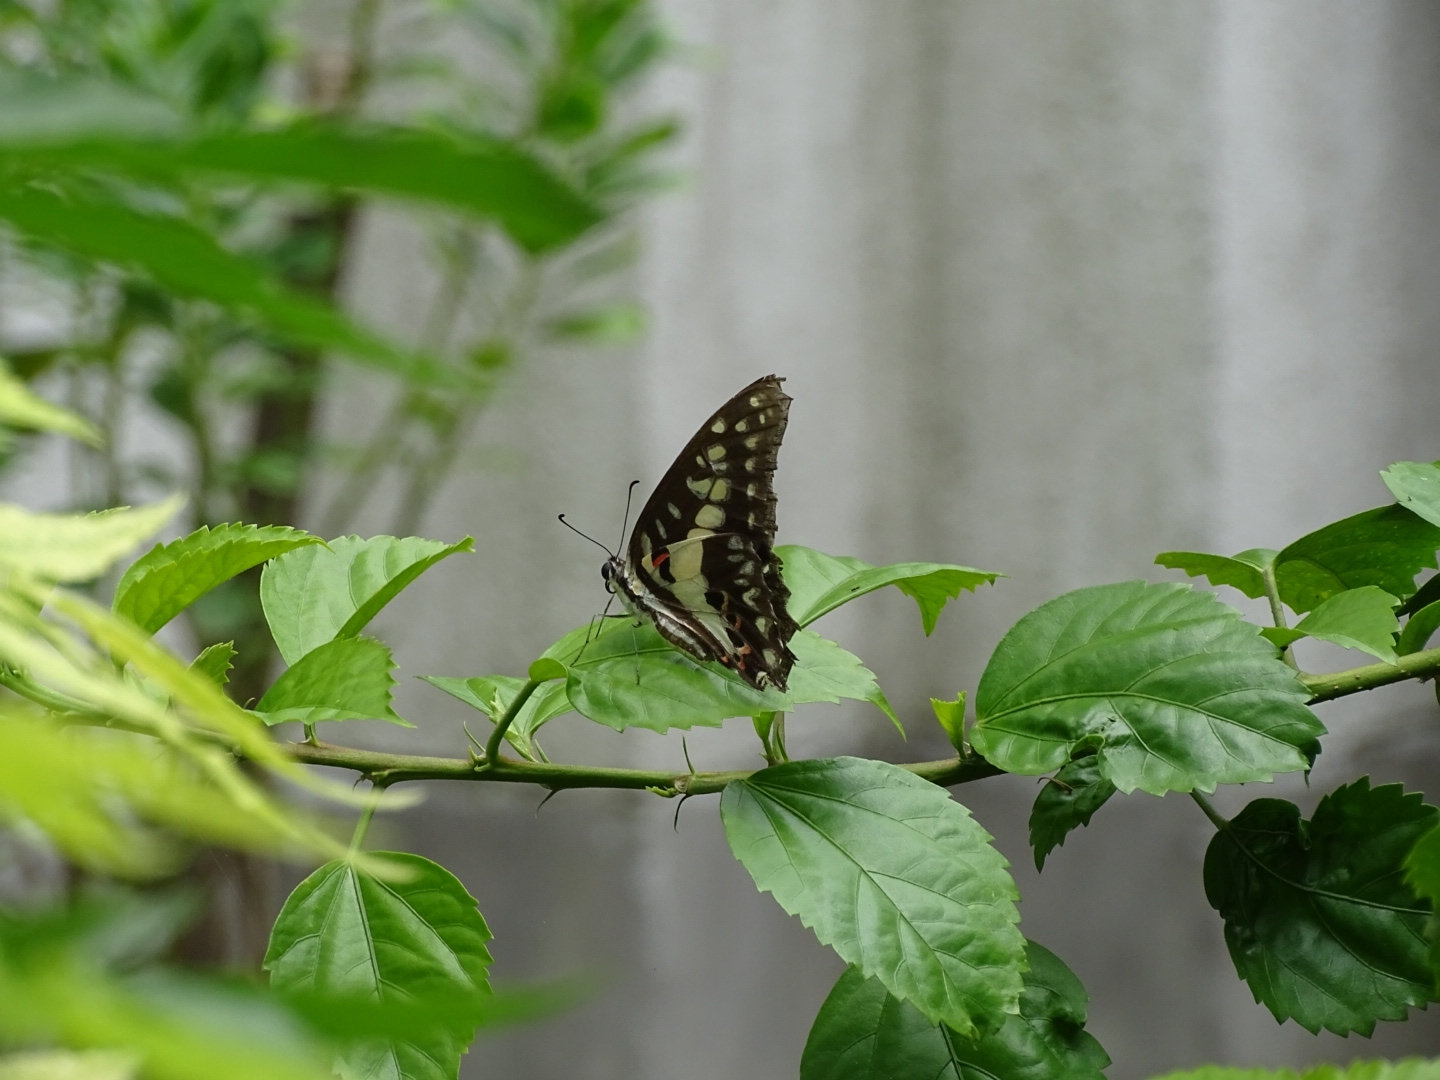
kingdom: Animalia
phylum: Arthropoda
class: Insecta
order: Lepidoptera
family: Papilionidae
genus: Graphium
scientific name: Graphium doson
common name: Common jay
